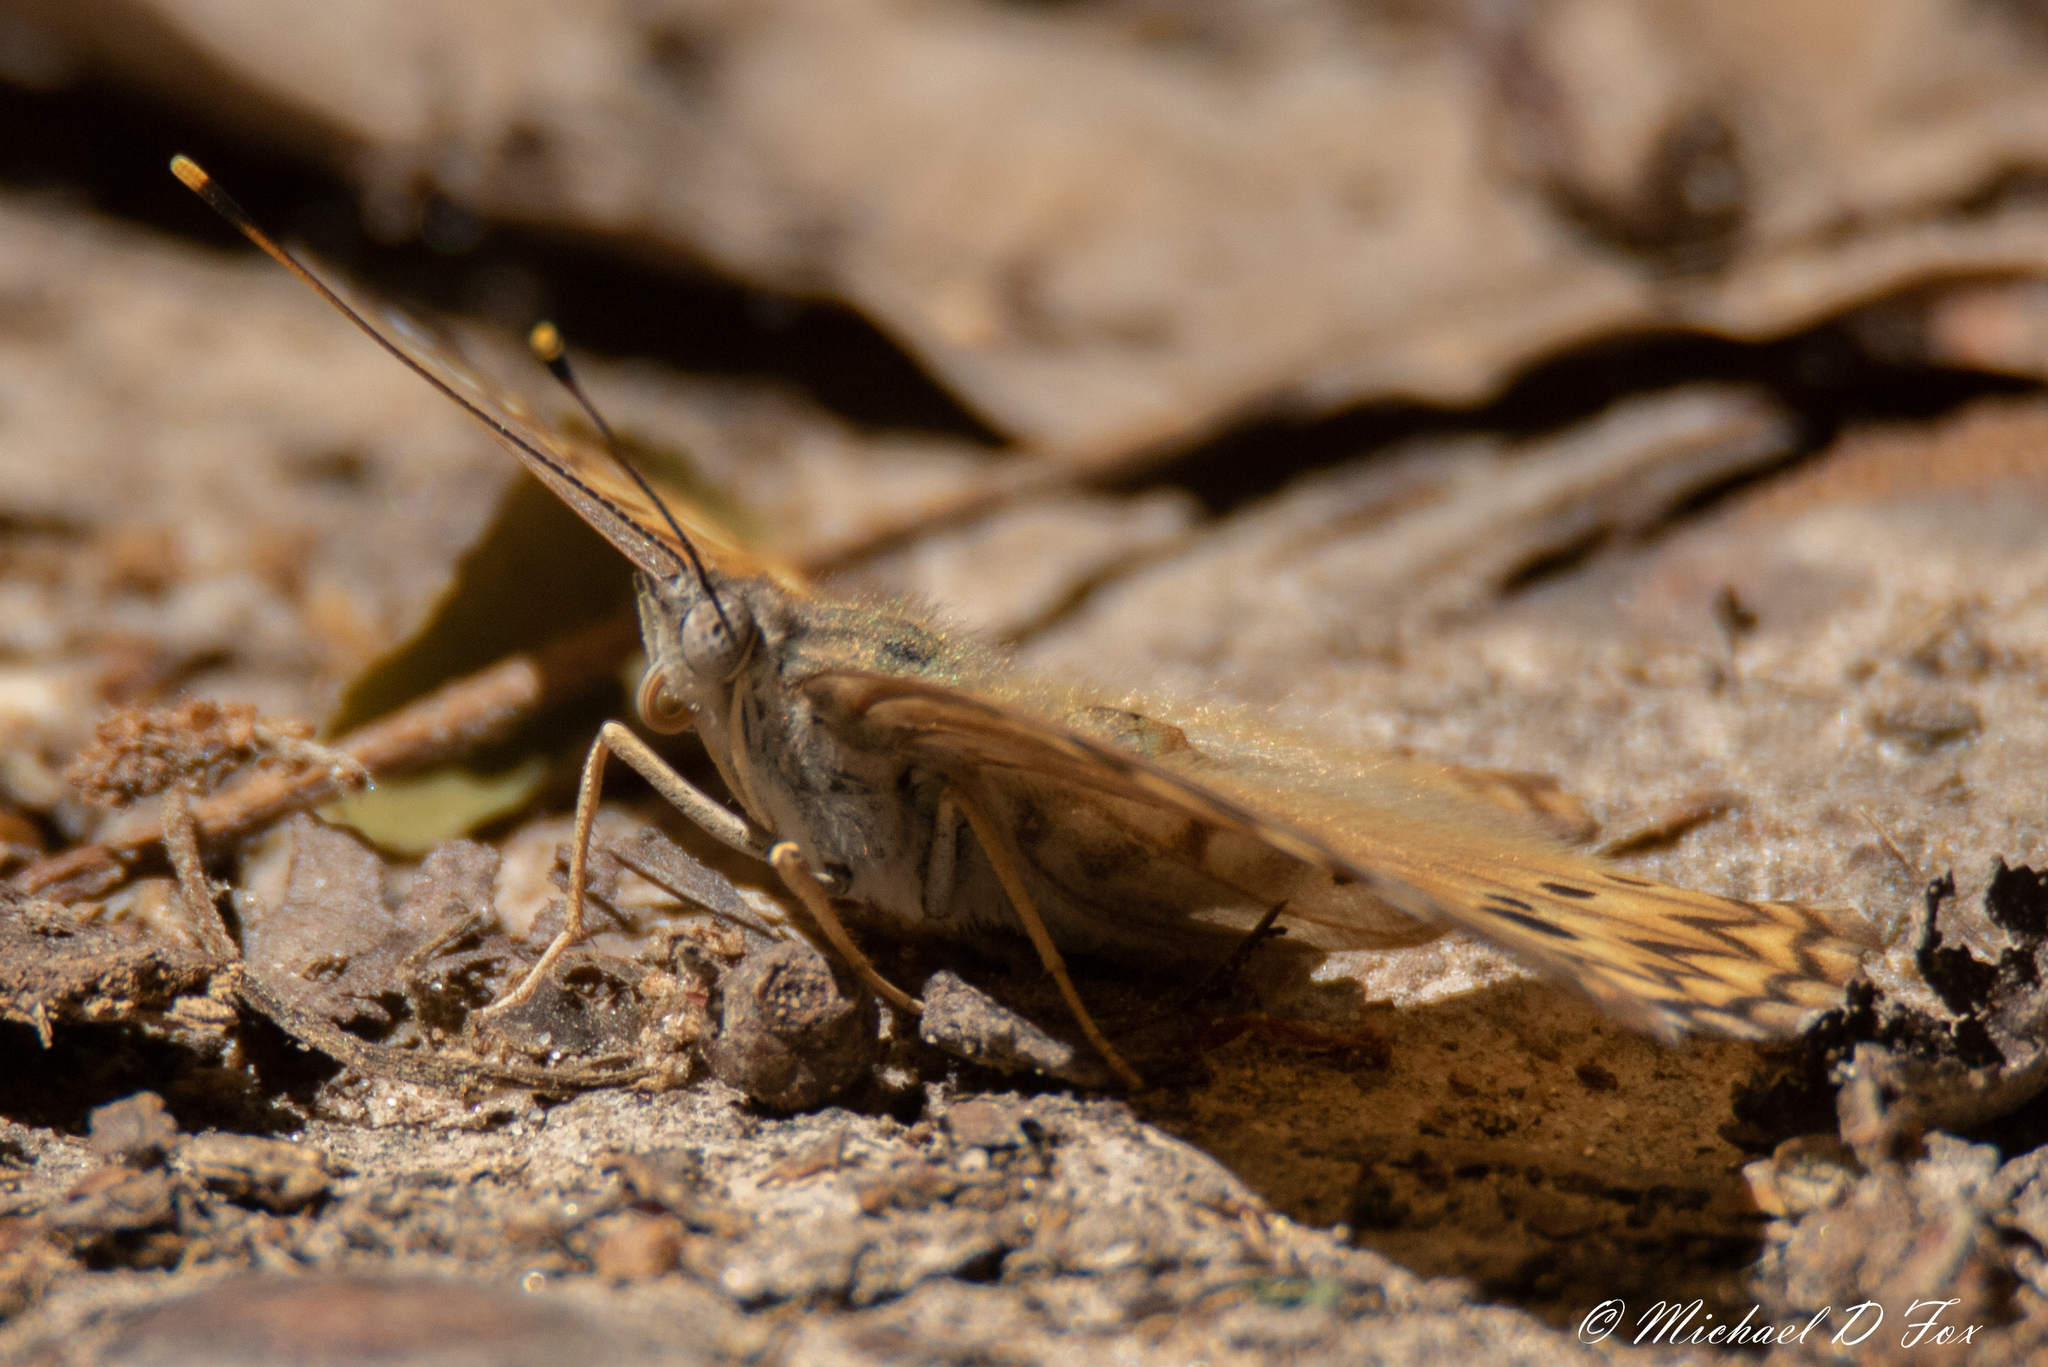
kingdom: Animalia
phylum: Arthropoda
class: Insecta
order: Lepidoptera
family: Nymphalidae
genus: Asterocampa
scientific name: Asterocampa celtis
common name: Hackberry emperor
